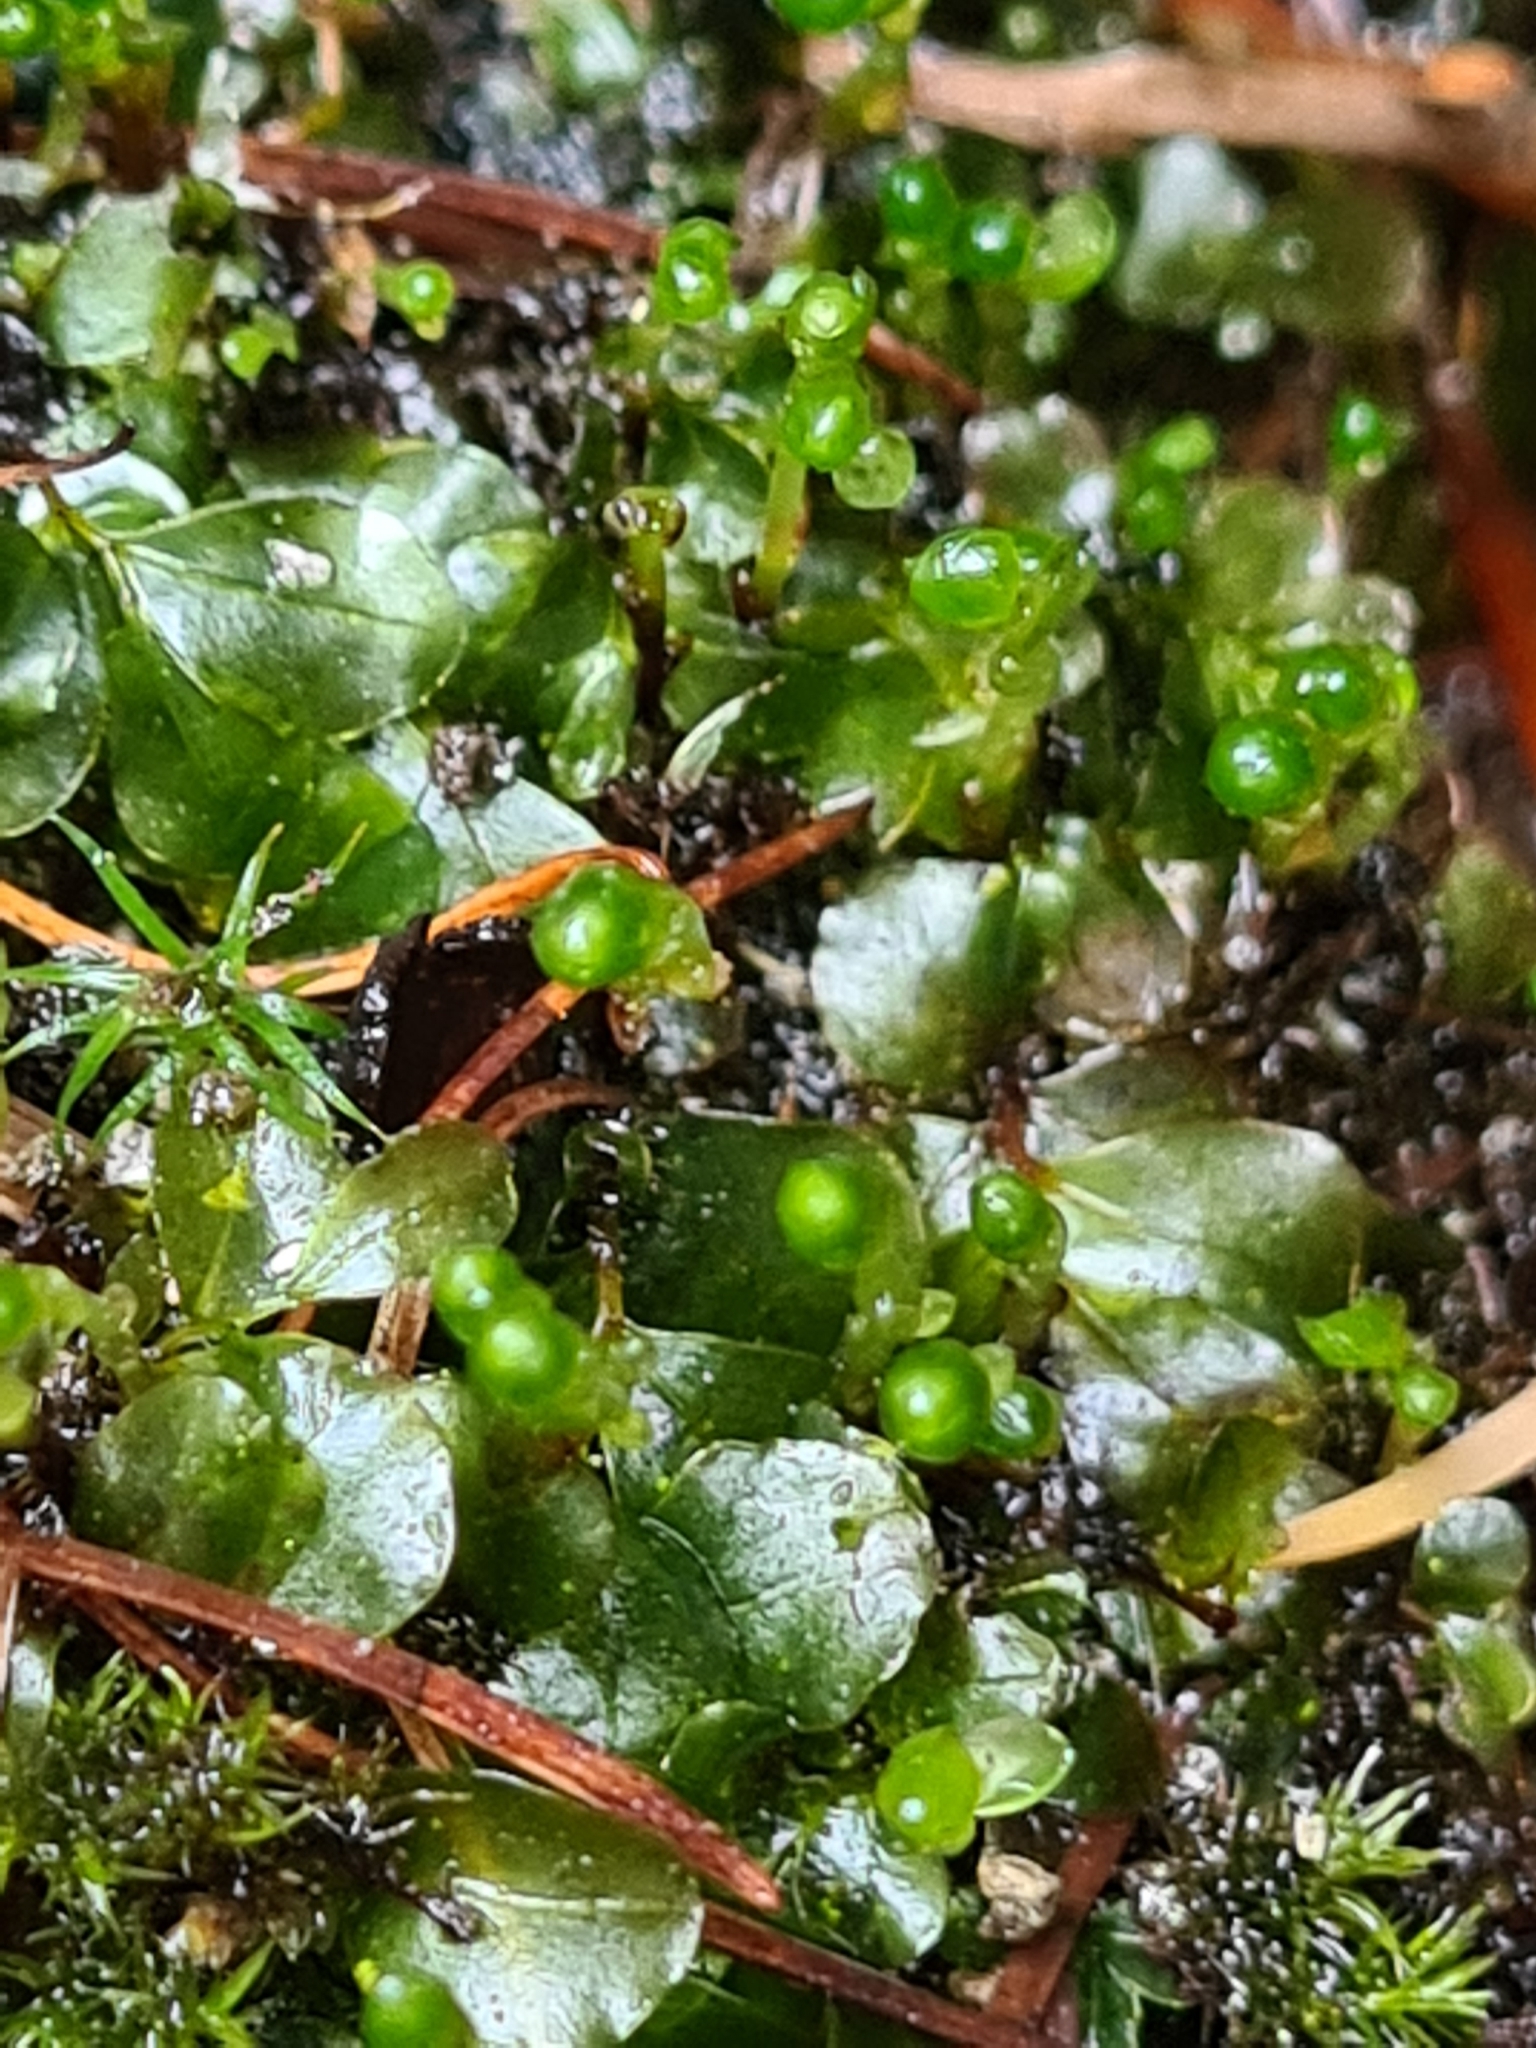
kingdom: Plantae
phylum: Bryophyta
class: Bryopsida
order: Bryales
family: Mniaceae
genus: Rhizomnium
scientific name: Rhizomnium punctatum
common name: Dotted leafy moss
